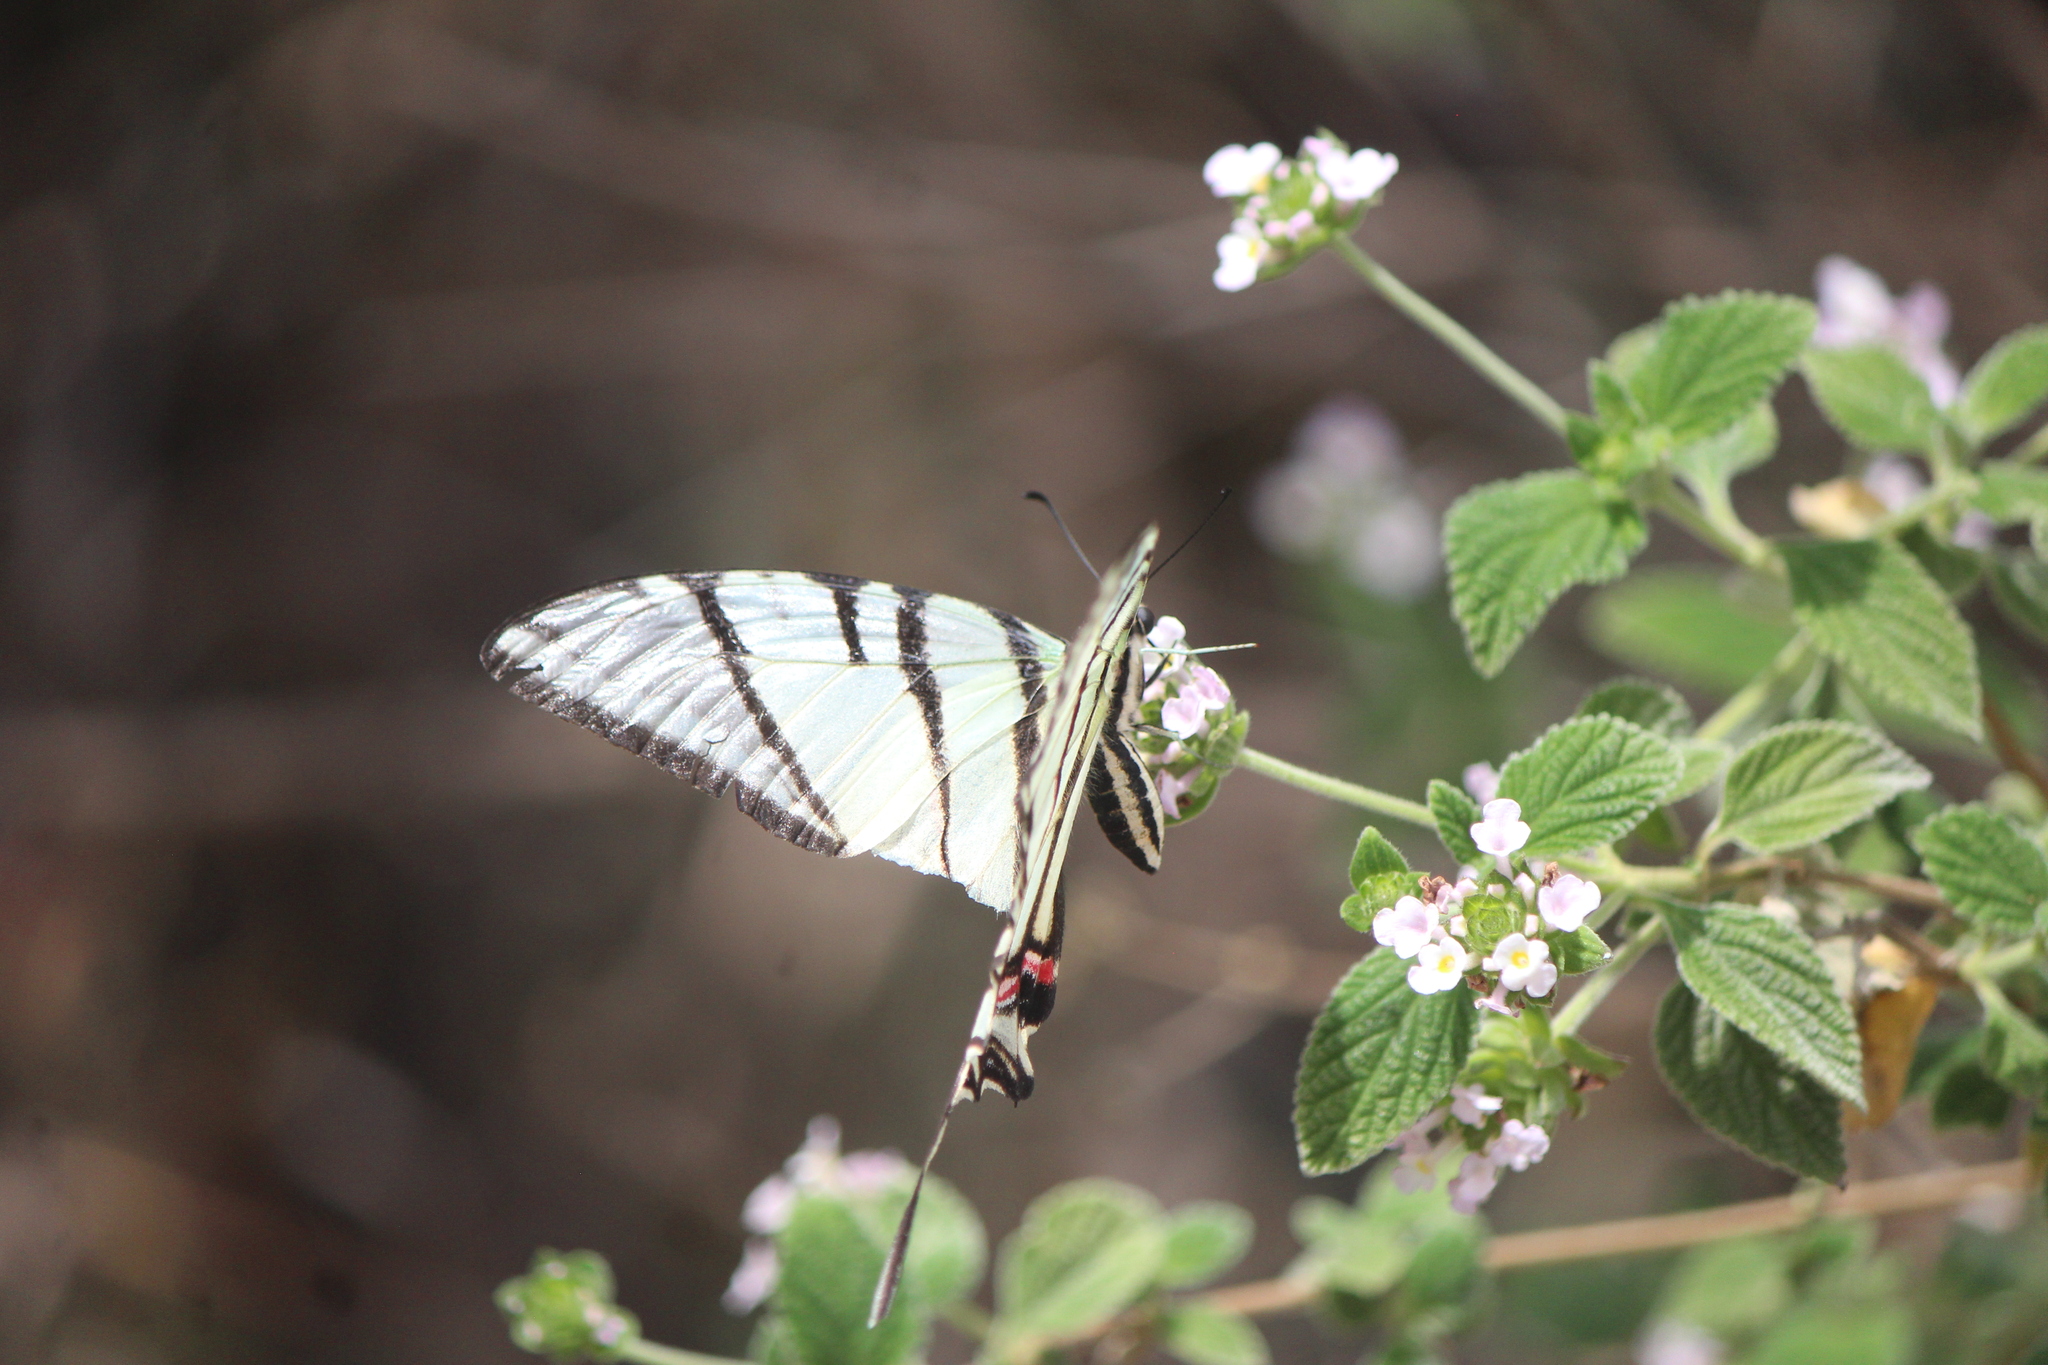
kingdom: Animalia
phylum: Arthropoda
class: Insecta
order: Lepidoptera
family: Papilionidae
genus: Protographium
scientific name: Protographium epidaus
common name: Mexican kite swallowtail
